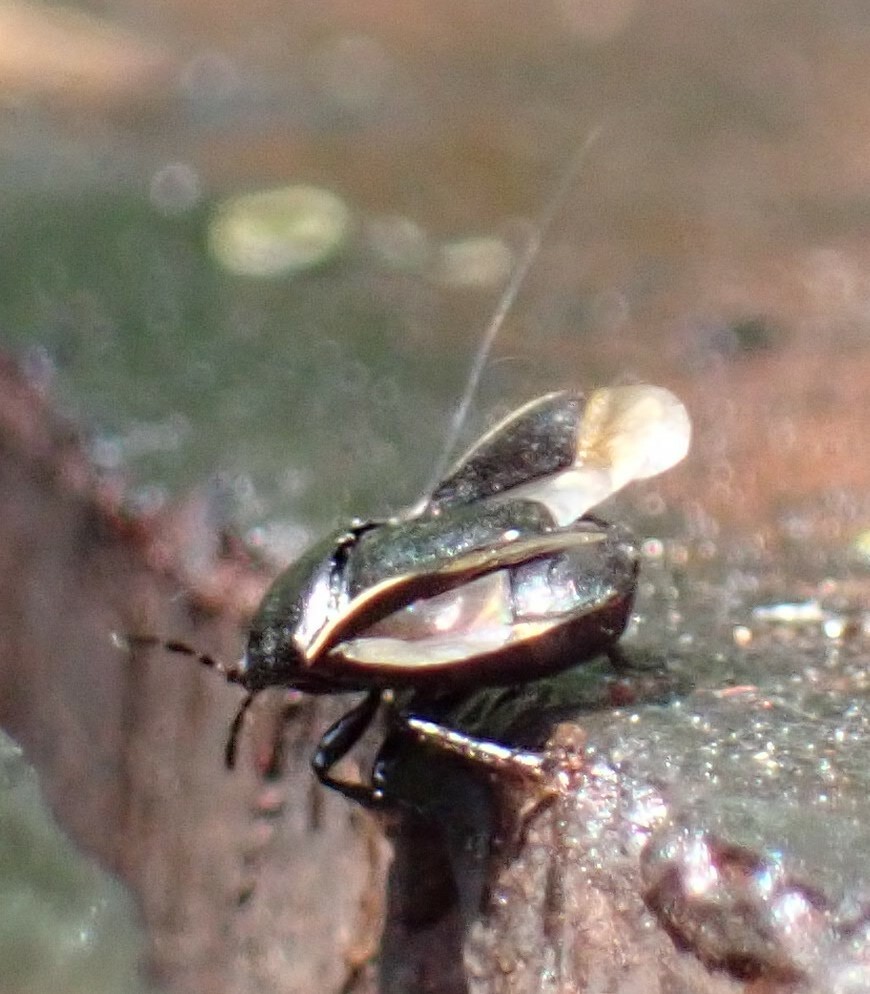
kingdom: Animalia
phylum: Arthropoda
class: Insecta
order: Hemiptera
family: Cydnidae
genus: Legnotus
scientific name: Legnotus limbosus
